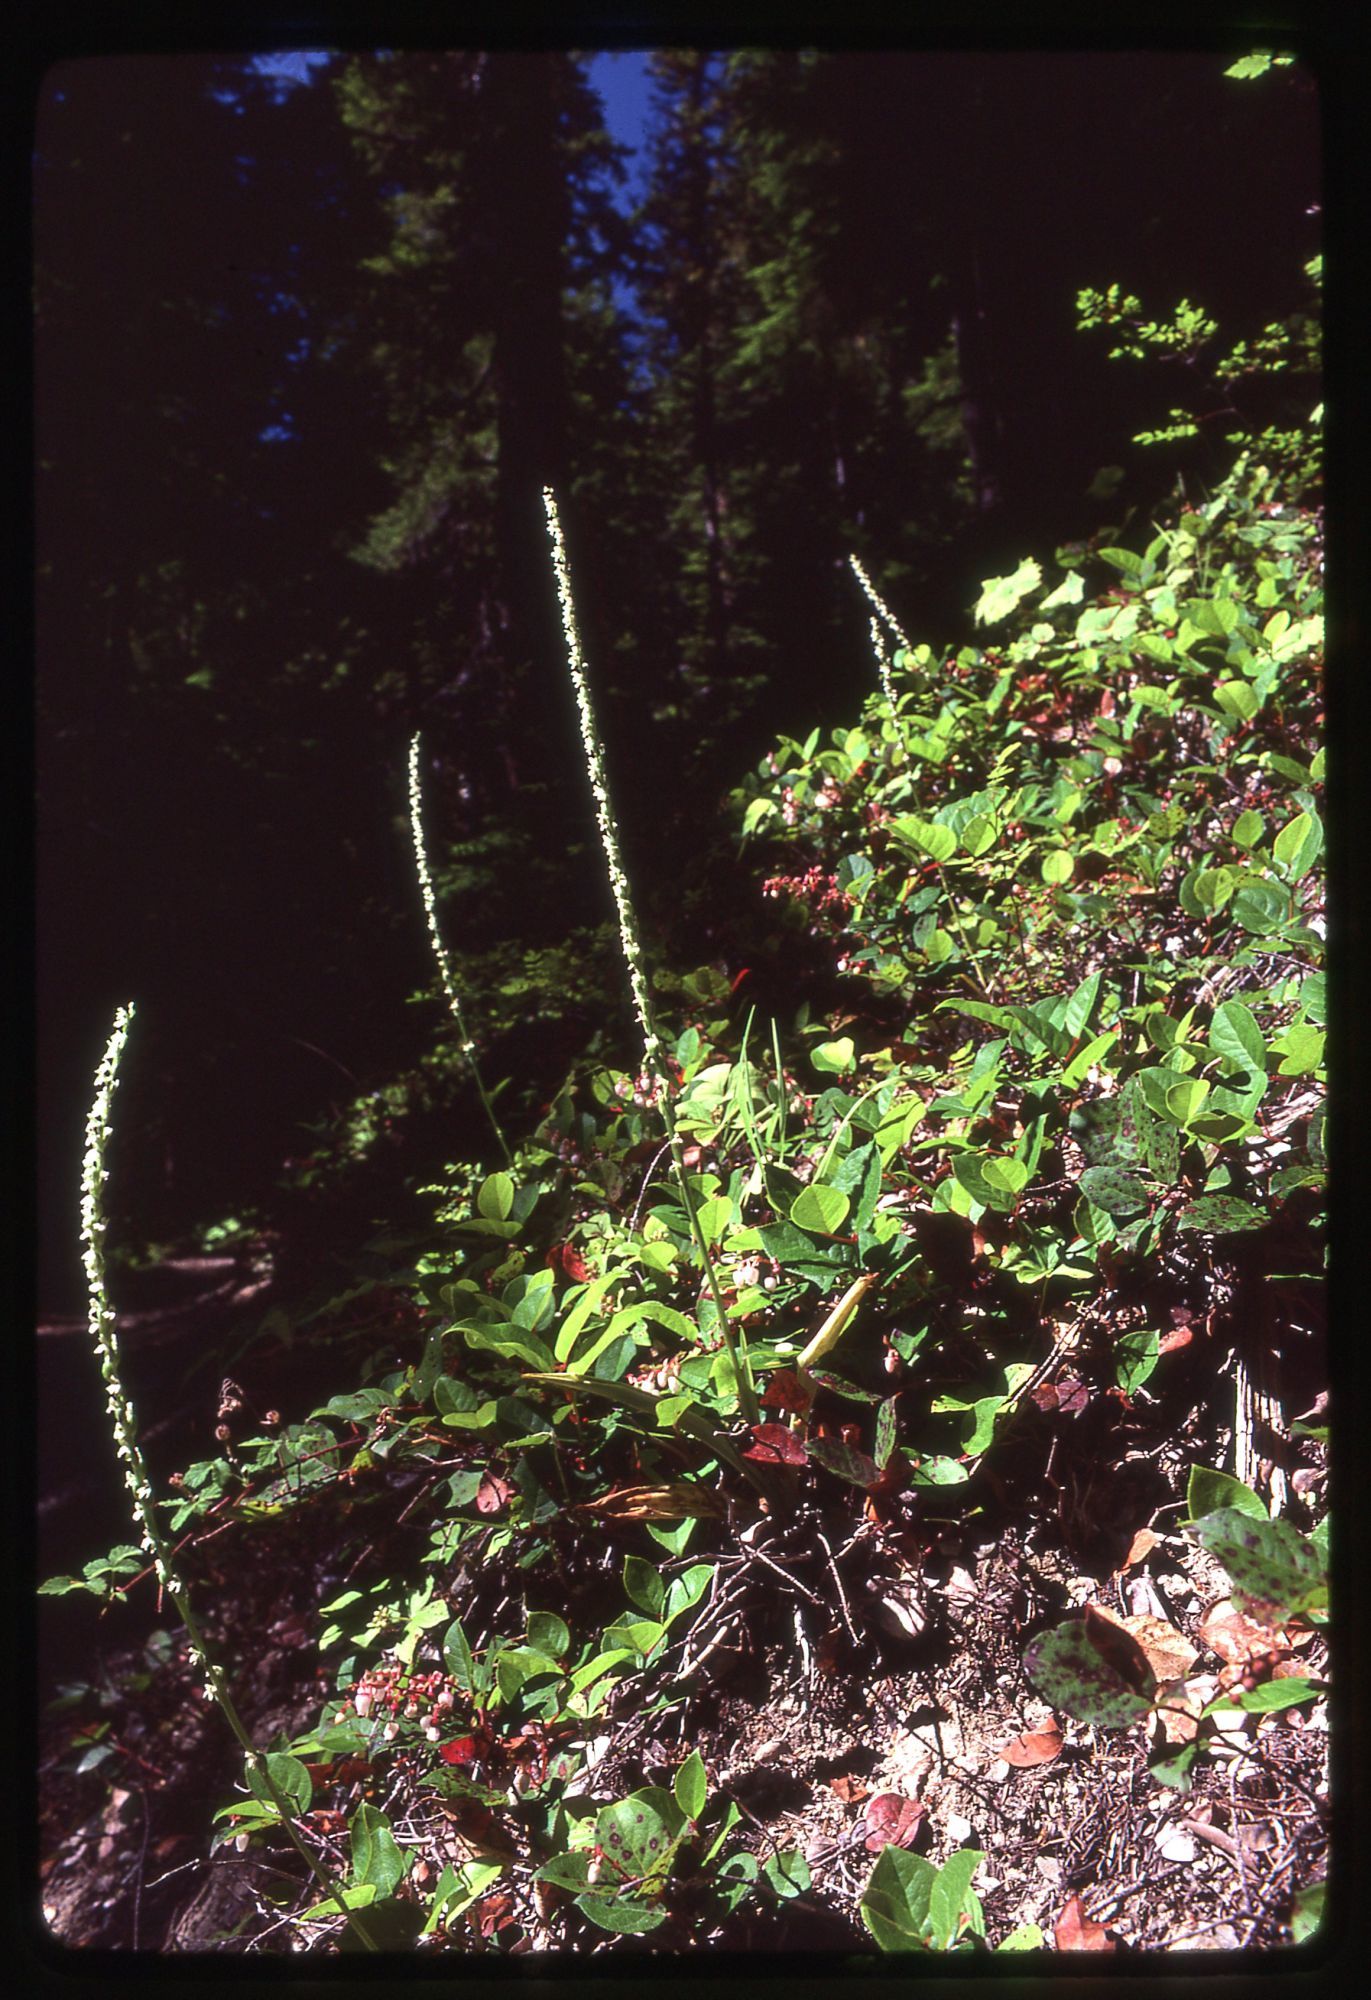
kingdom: Plantae
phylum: Tracheophyta
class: Liliopsida
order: Asparagales
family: Orchidaceae
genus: Platanthera
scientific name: Platanthera ephemerantha
